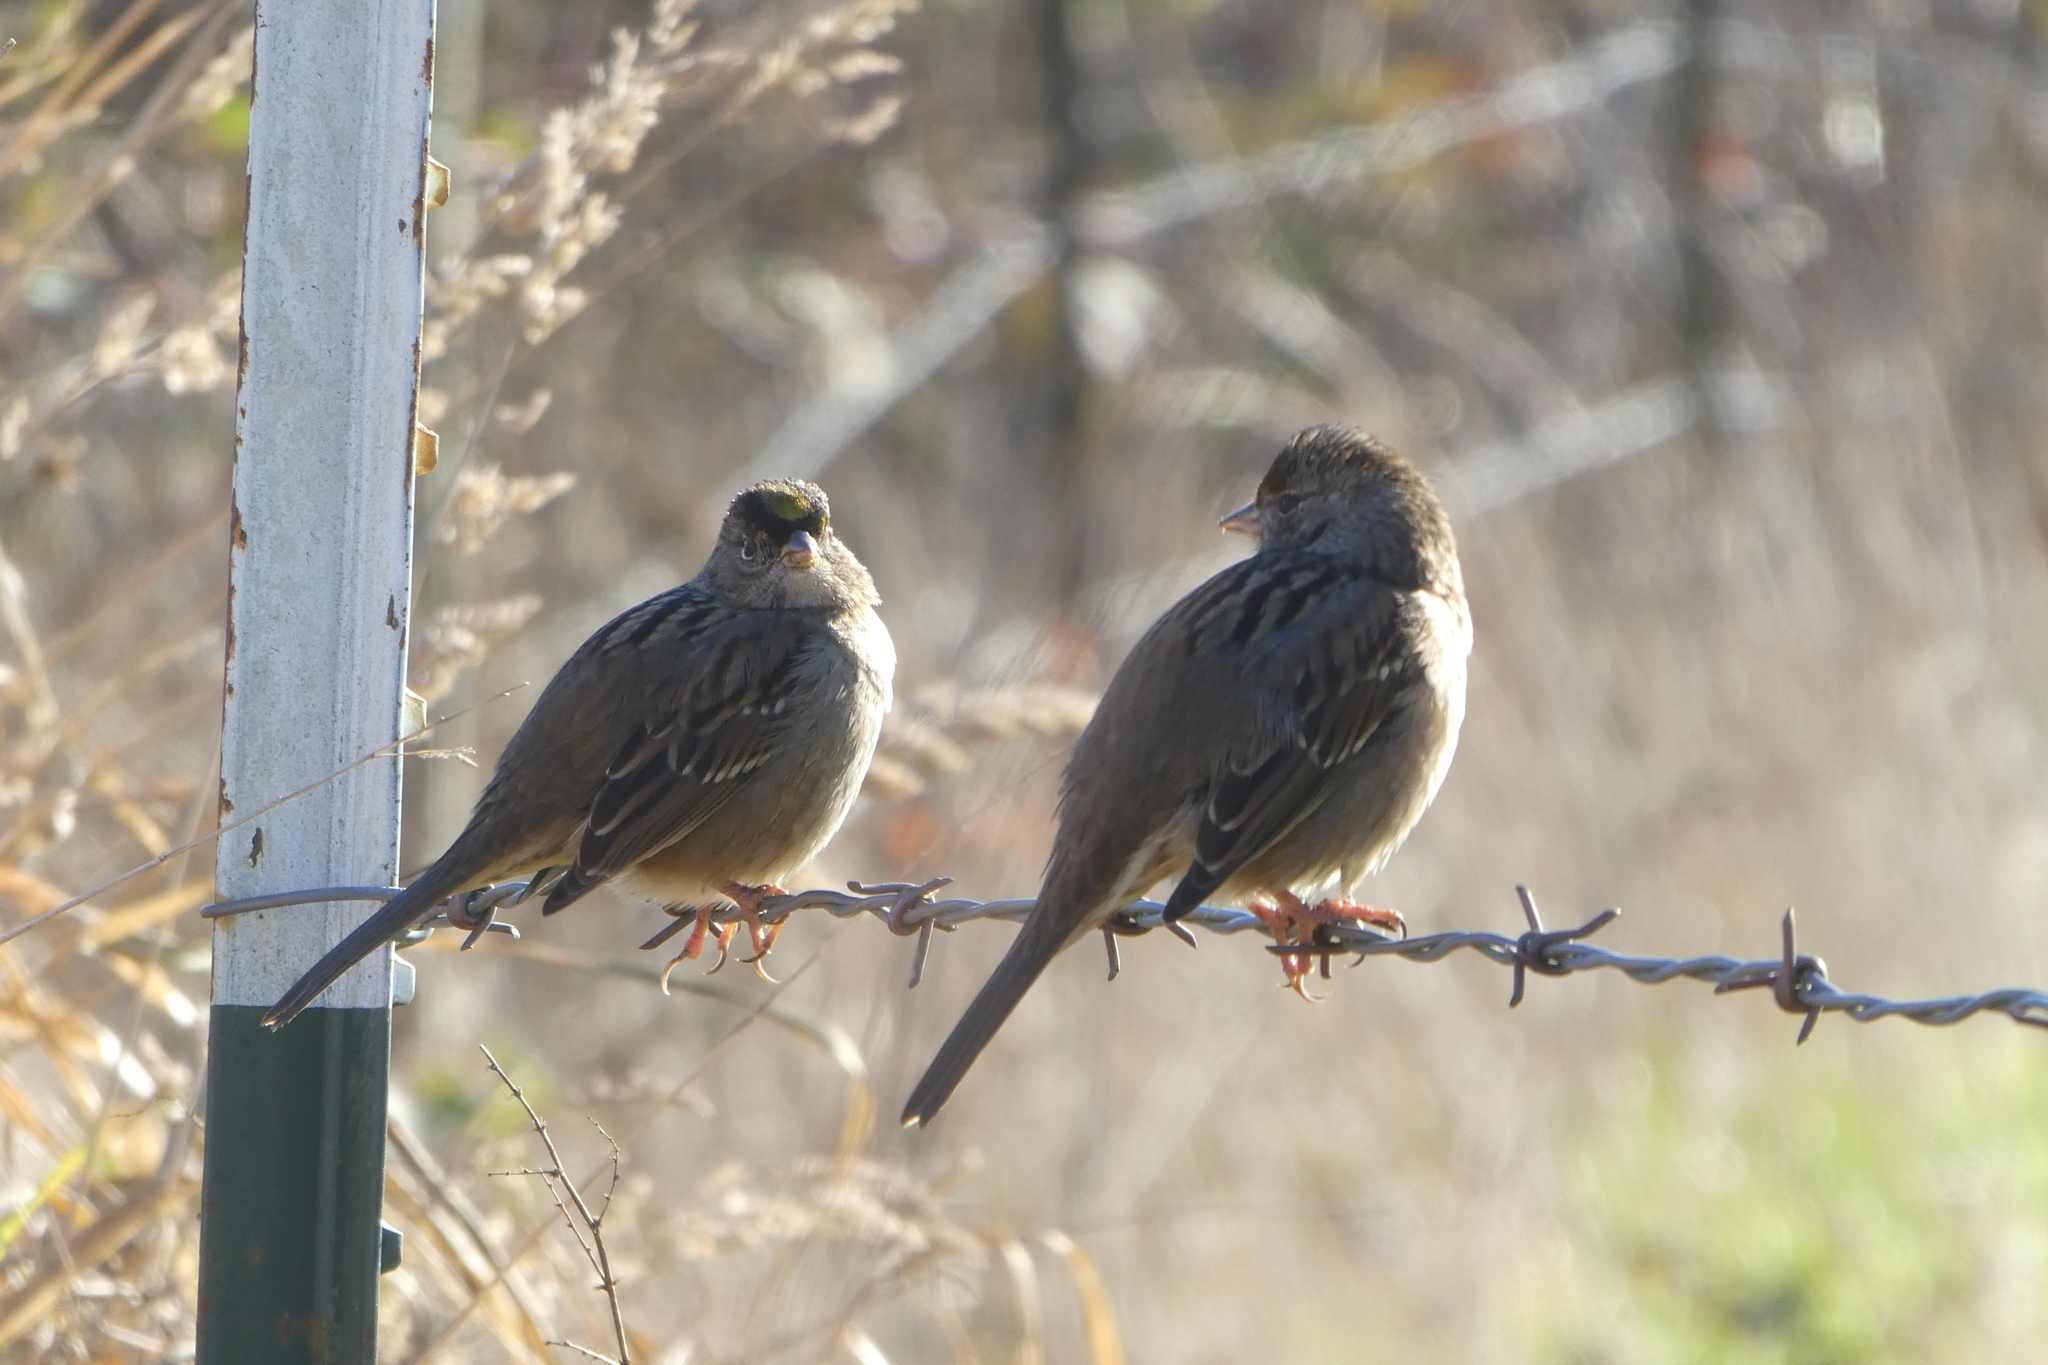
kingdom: Animalia
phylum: Chordata
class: Aves
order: Passeriformes
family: Passerellidae
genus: Zonotrichia
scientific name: Zonotrichia atricapilla
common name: Golden-crowned sparrow
